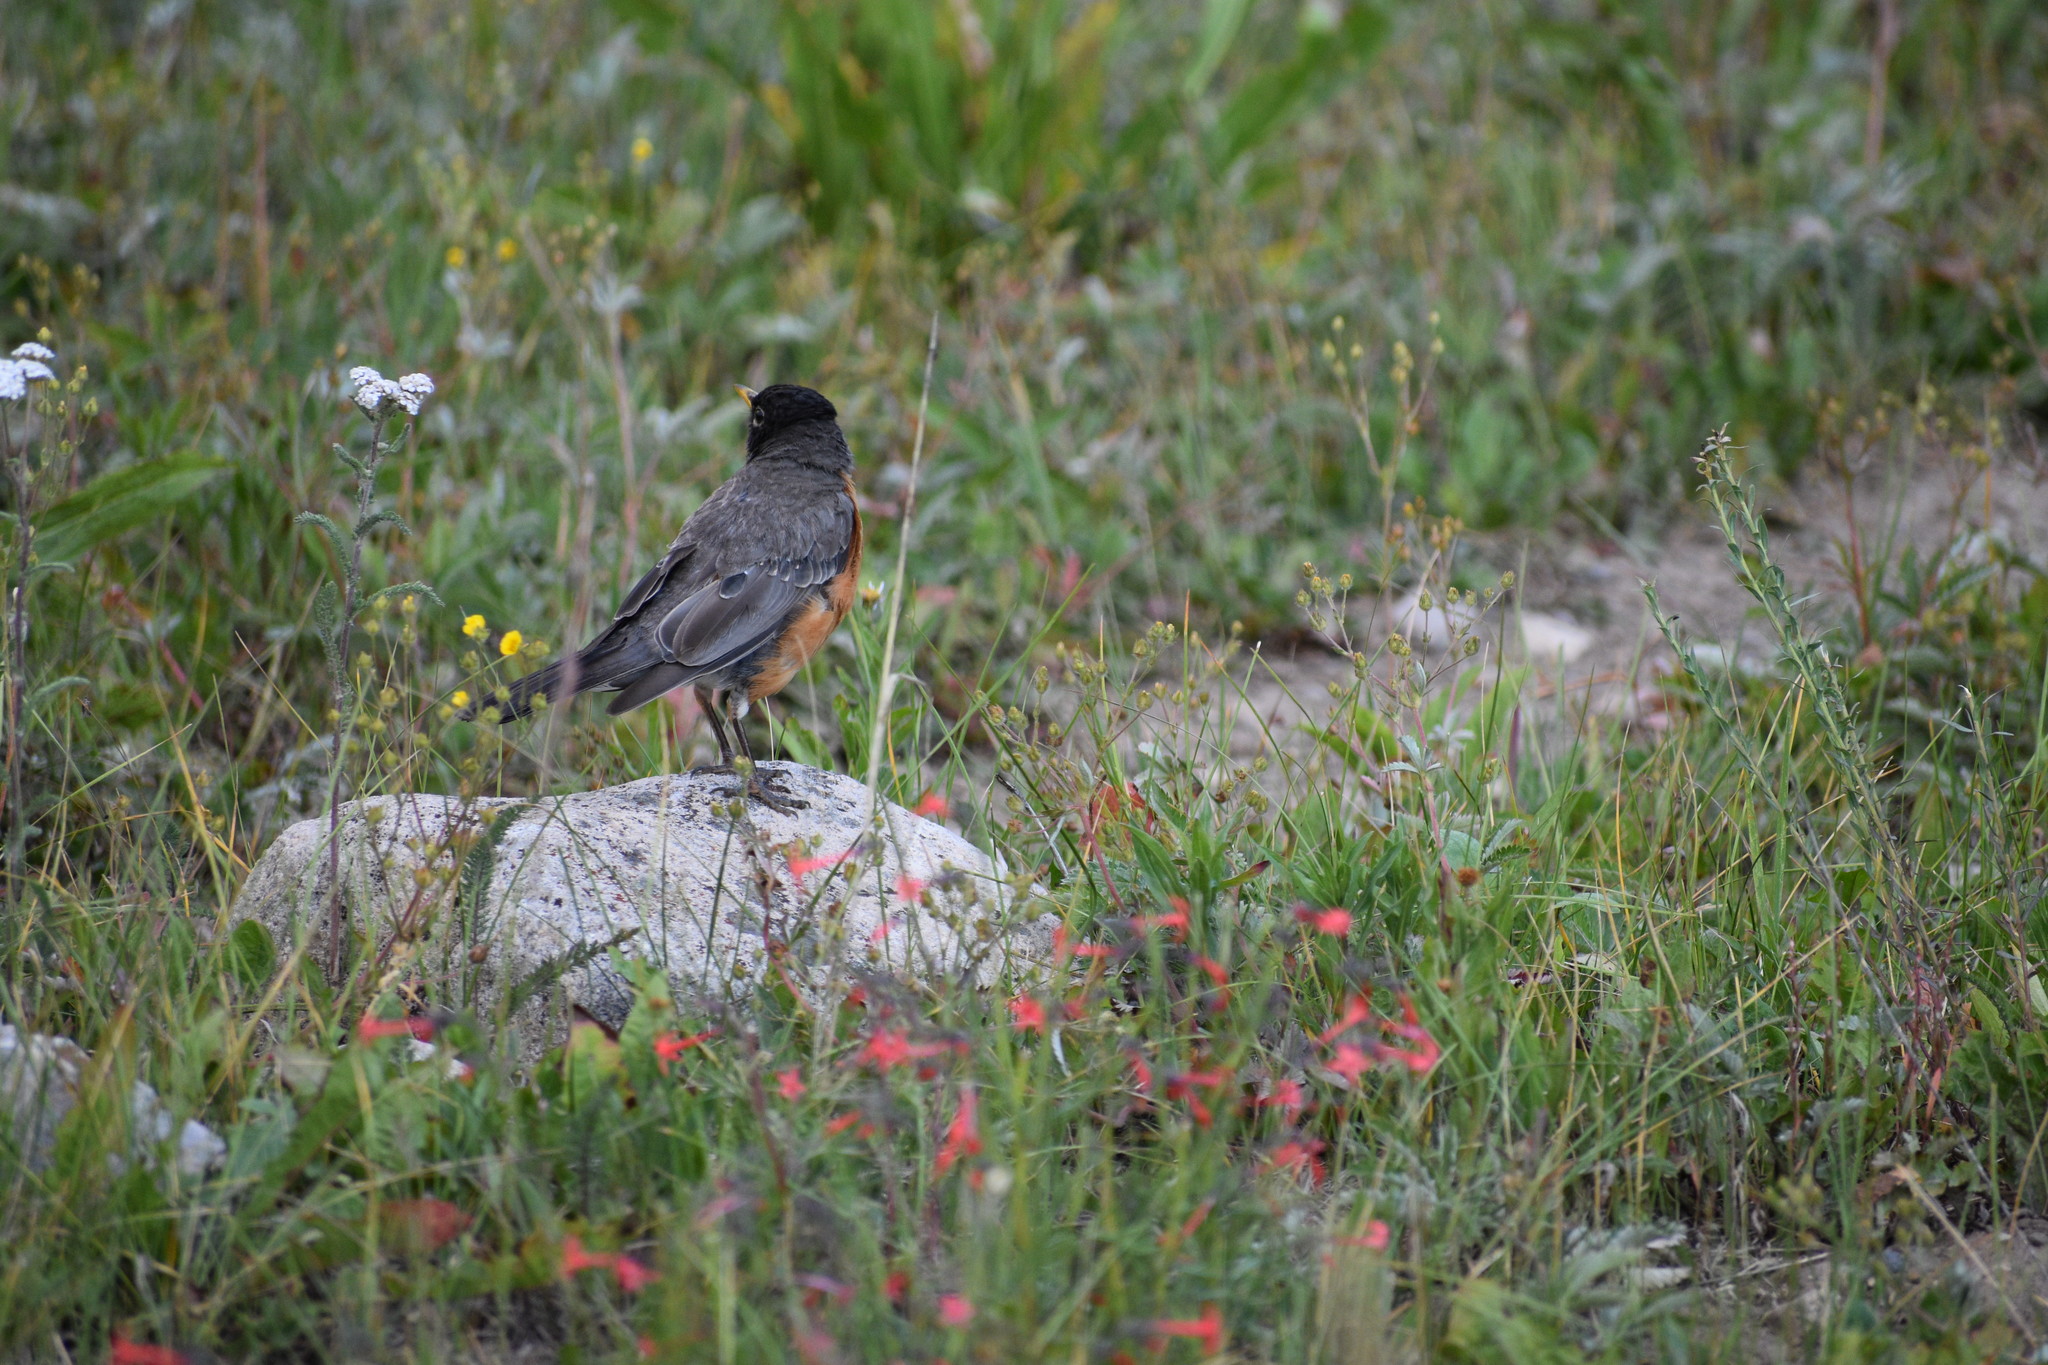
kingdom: Animalia
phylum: Chordata
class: Aves
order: Passeriformes
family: Turdidae
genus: Turdus
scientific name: Turdus migratorius
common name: American robin
